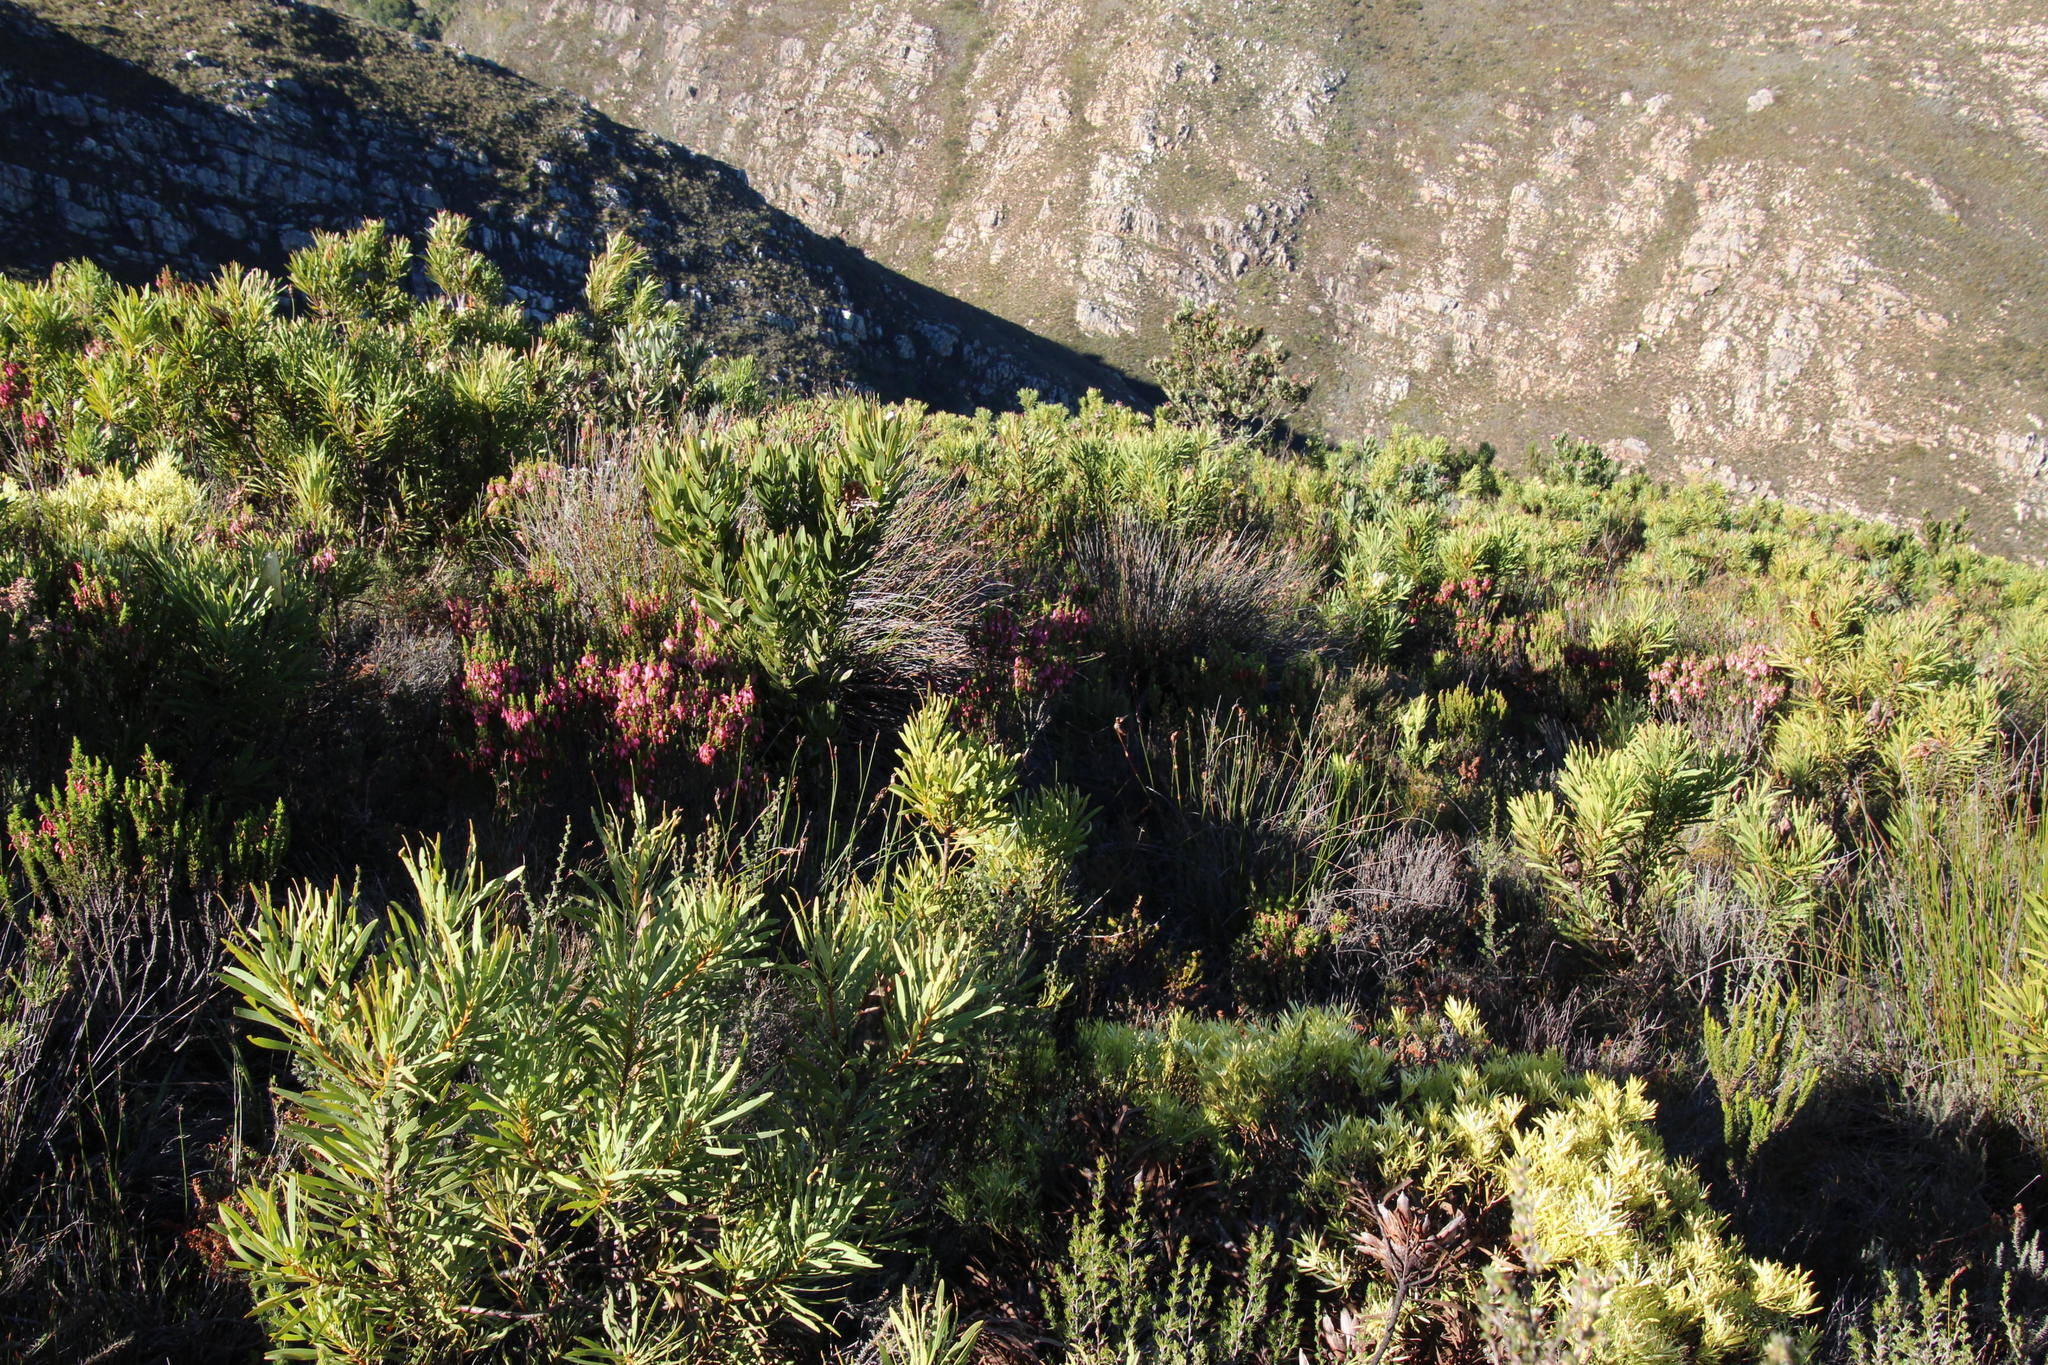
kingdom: Plantae
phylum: Tracheophyta
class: Magnoliopsida
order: Ericales
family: Ericaceae
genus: Erica
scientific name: Erica plukenetii
